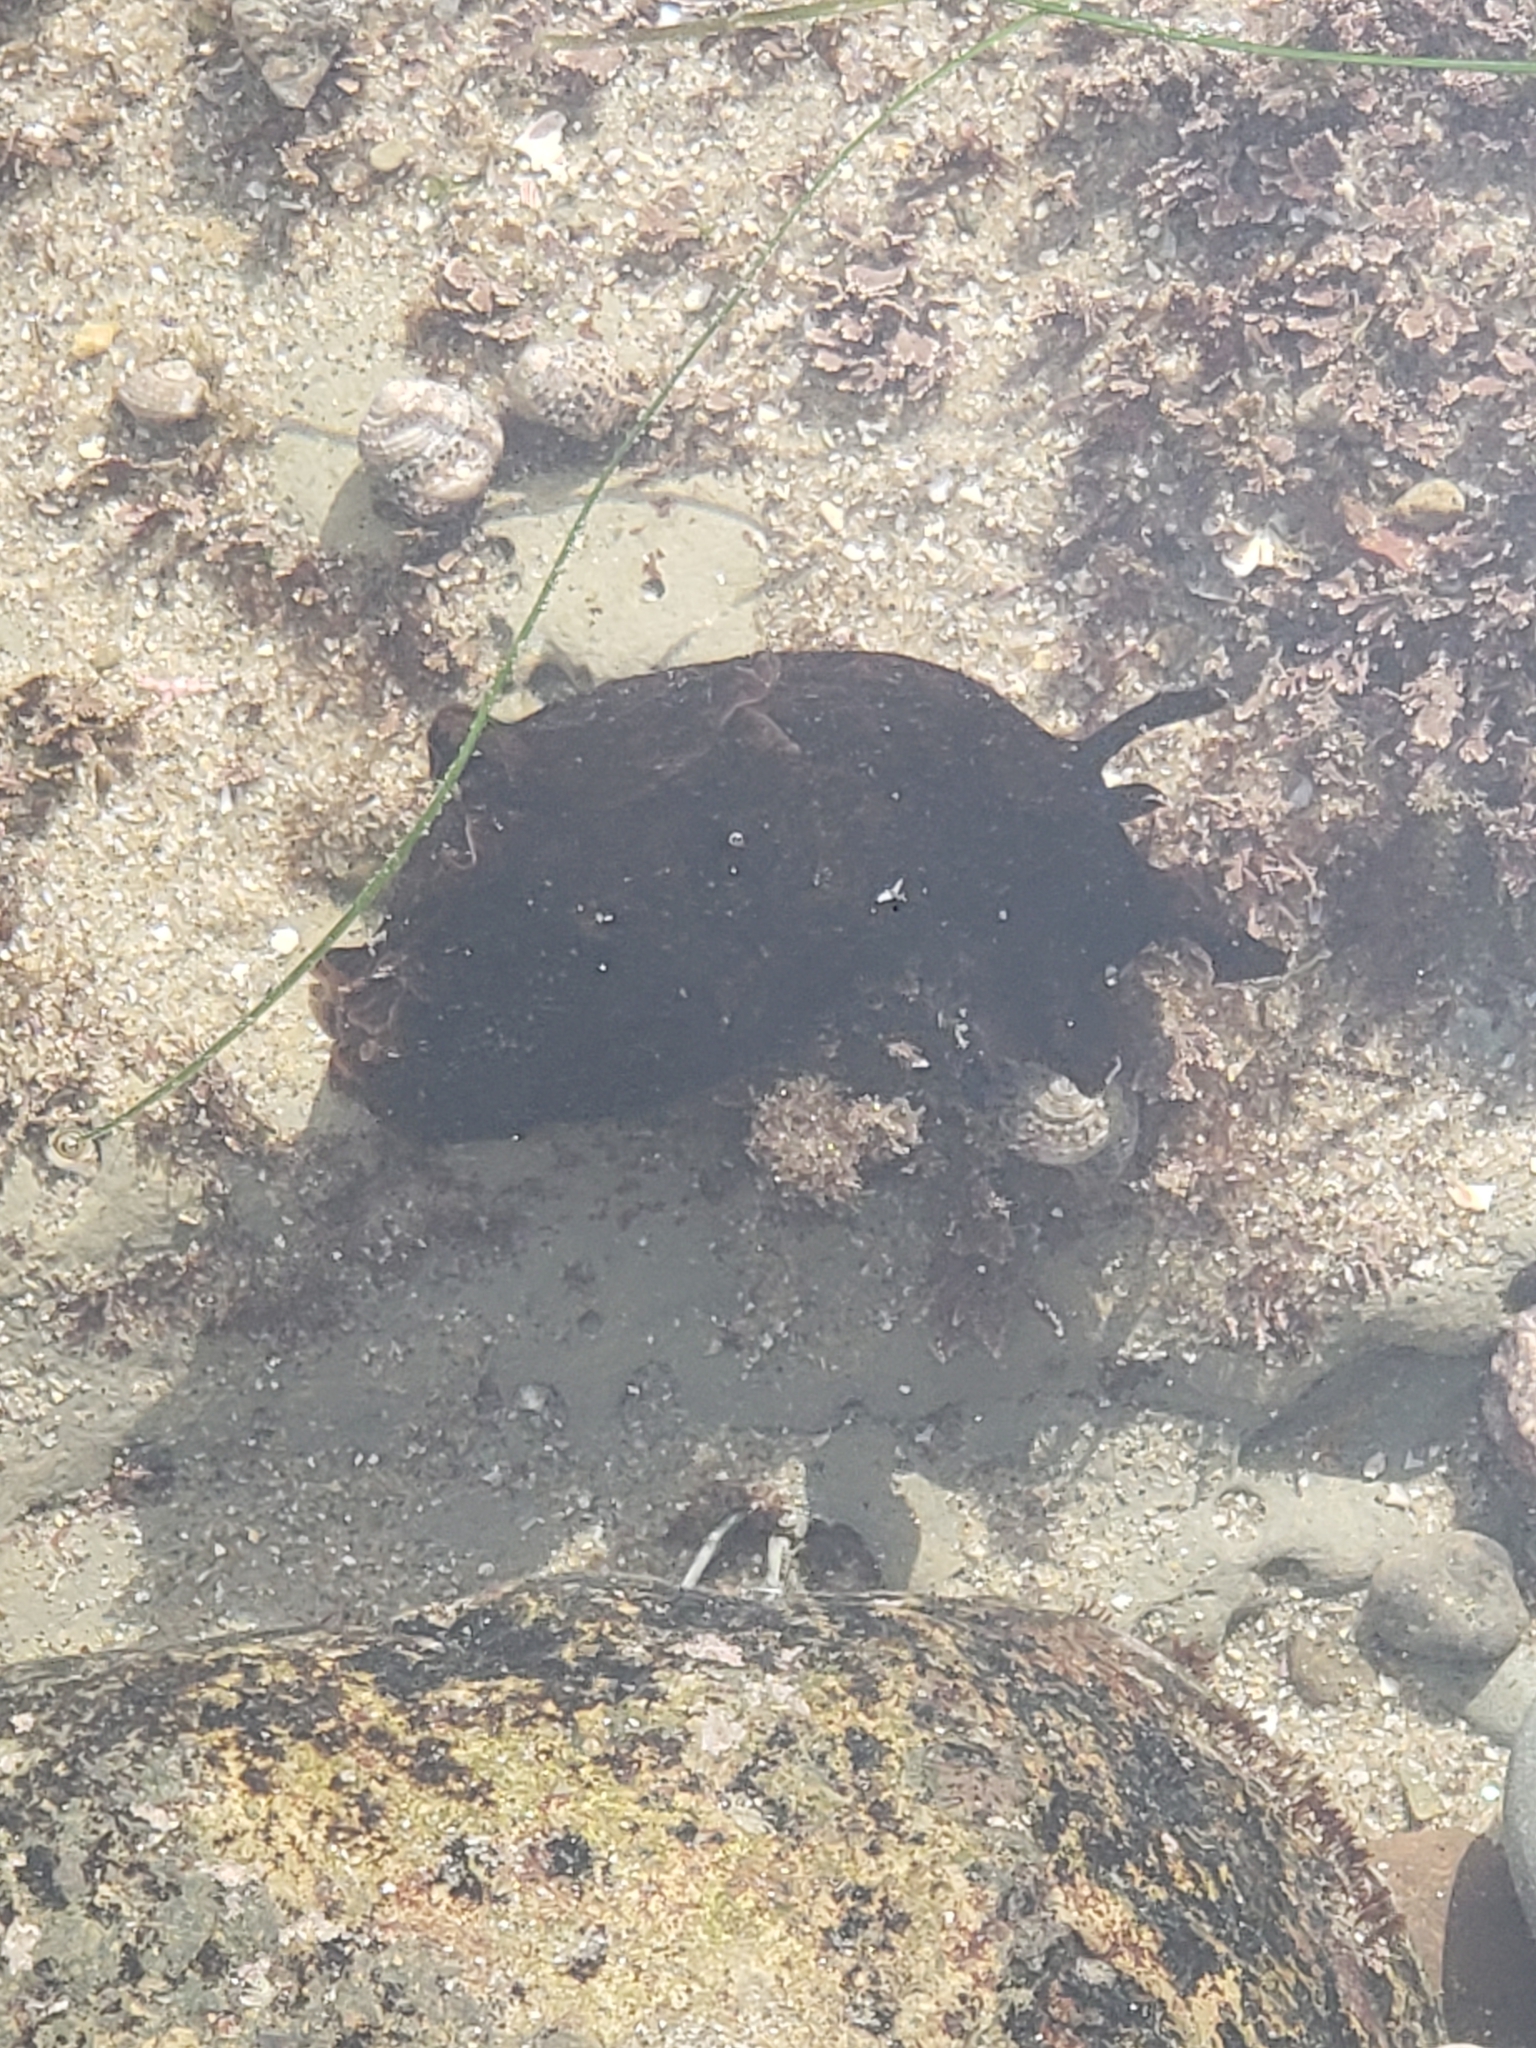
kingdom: Animalia
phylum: Mollusca
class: Gastropoda
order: Aplysiida
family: Aplysiidae
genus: Aplysia
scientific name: Aplysia californica
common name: California seahare
